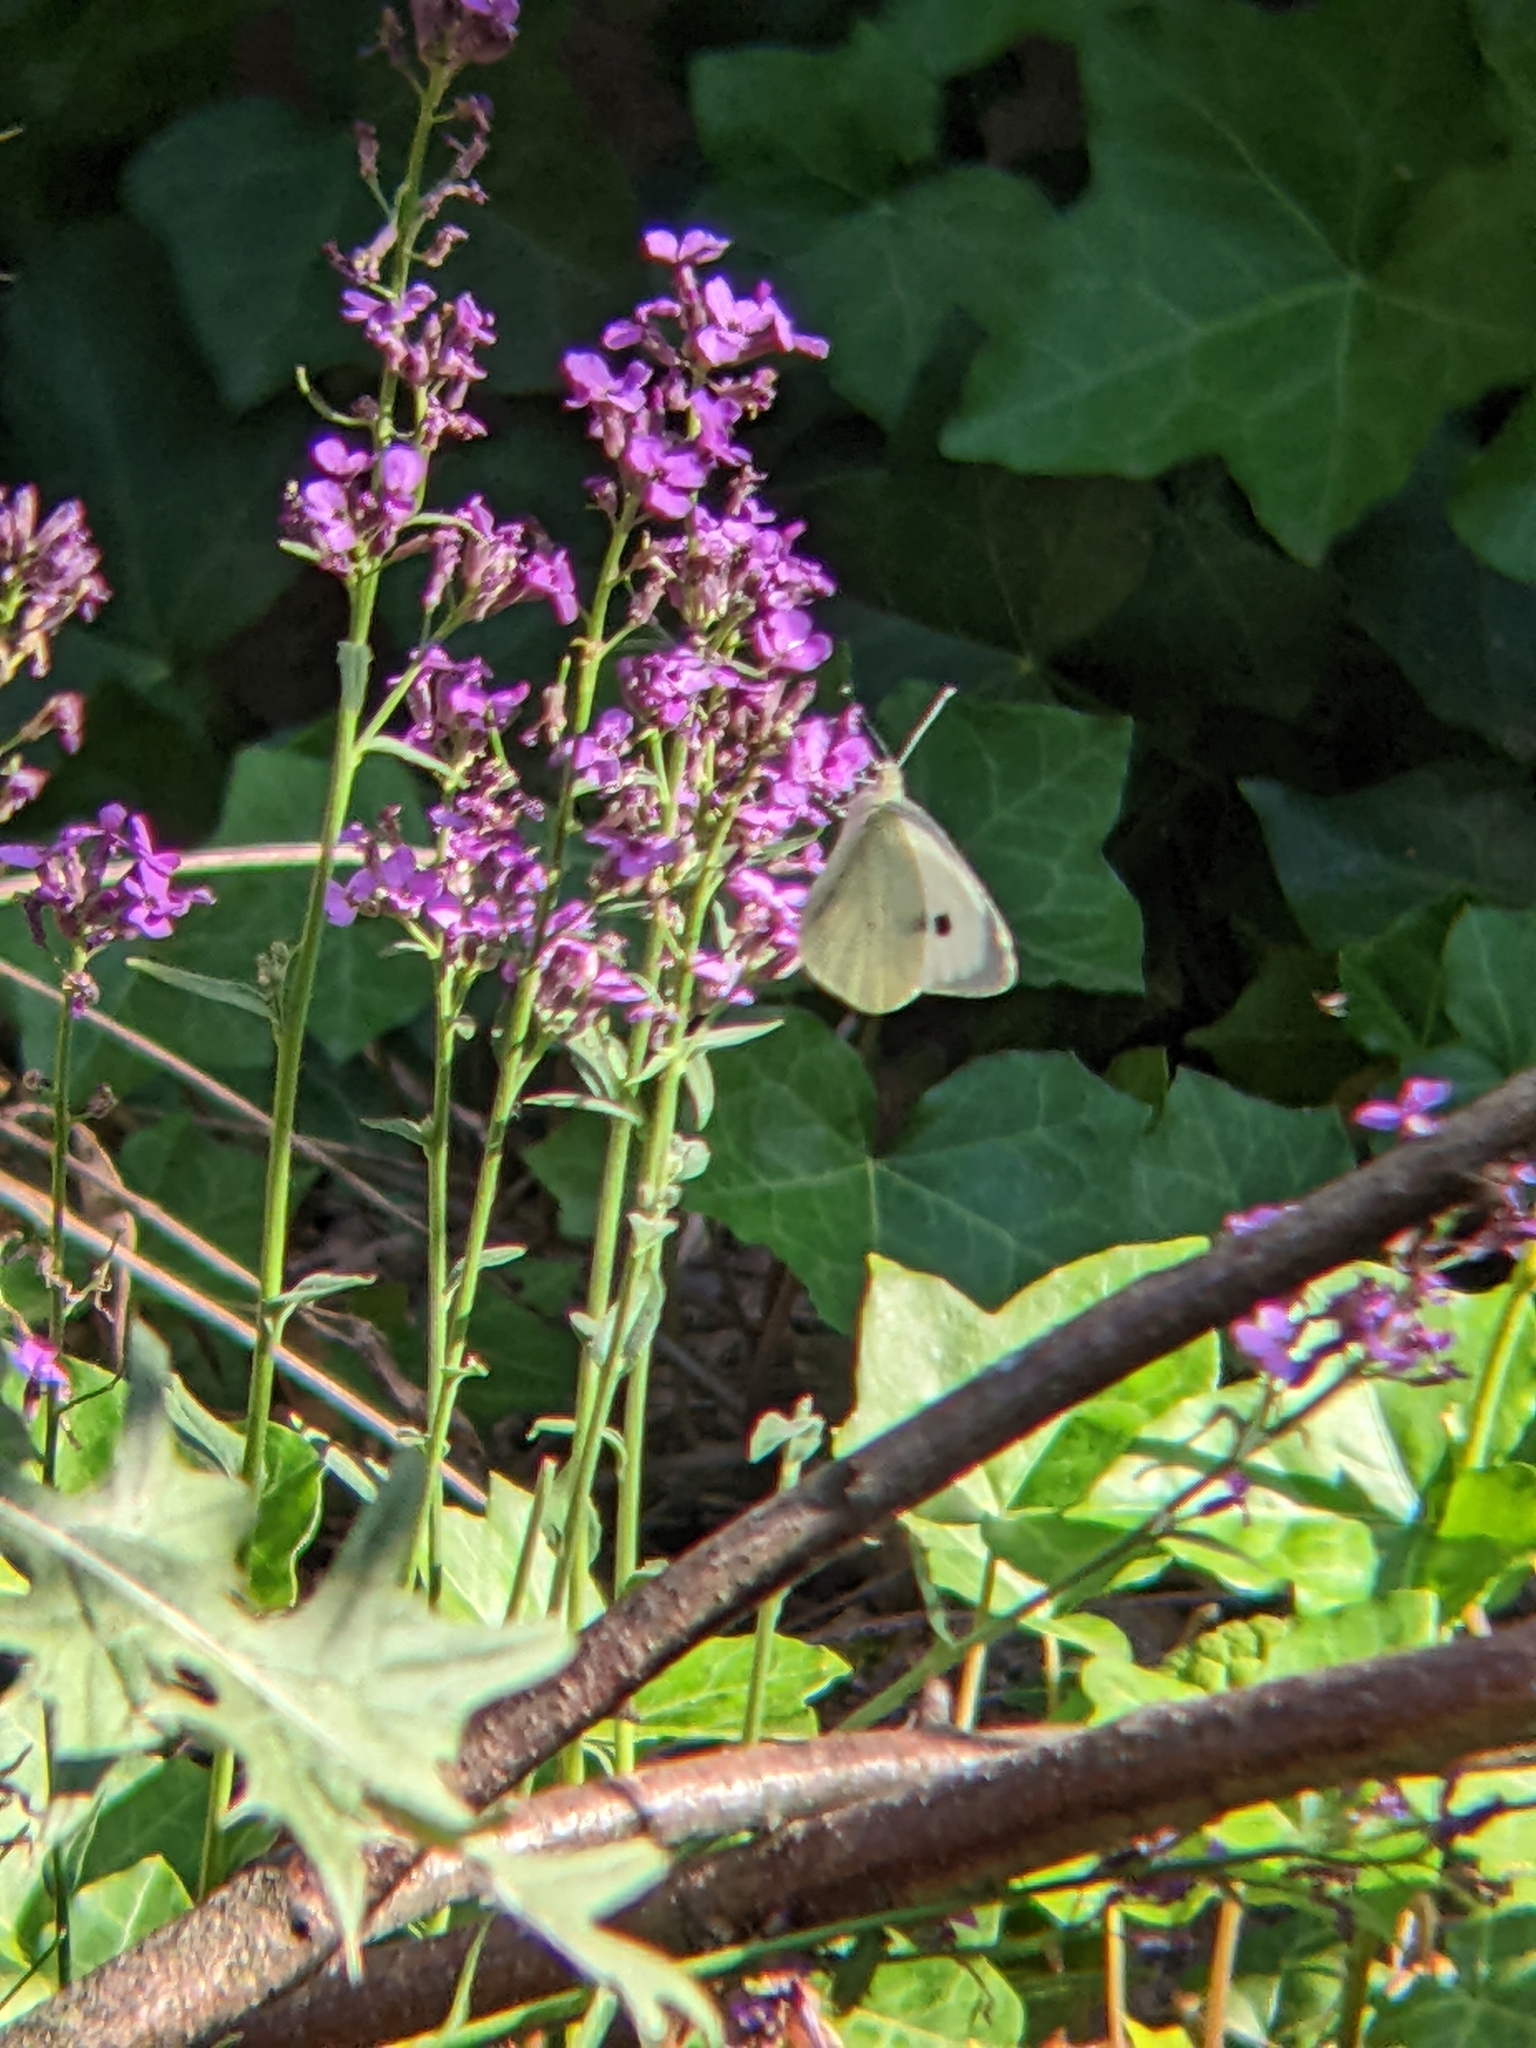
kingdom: Animalia
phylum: Arthropoda
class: Insecta
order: Lepidoptera
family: Pieridae
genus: Pieris
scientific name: Pieris brassicae
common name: Large white
